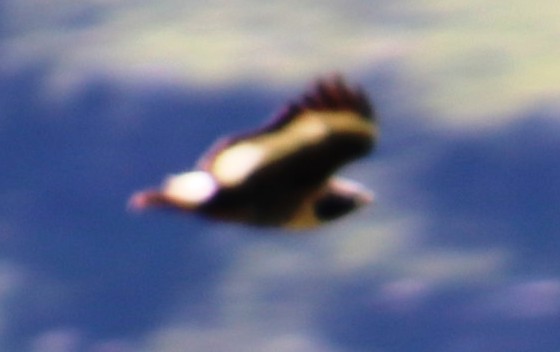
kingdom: Animalia
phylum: Chordata
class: Aves
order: Accipitriformes
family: Accipitridae
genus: Buteo
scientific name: Buteo rufofuscus
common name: Jackal buzzard
